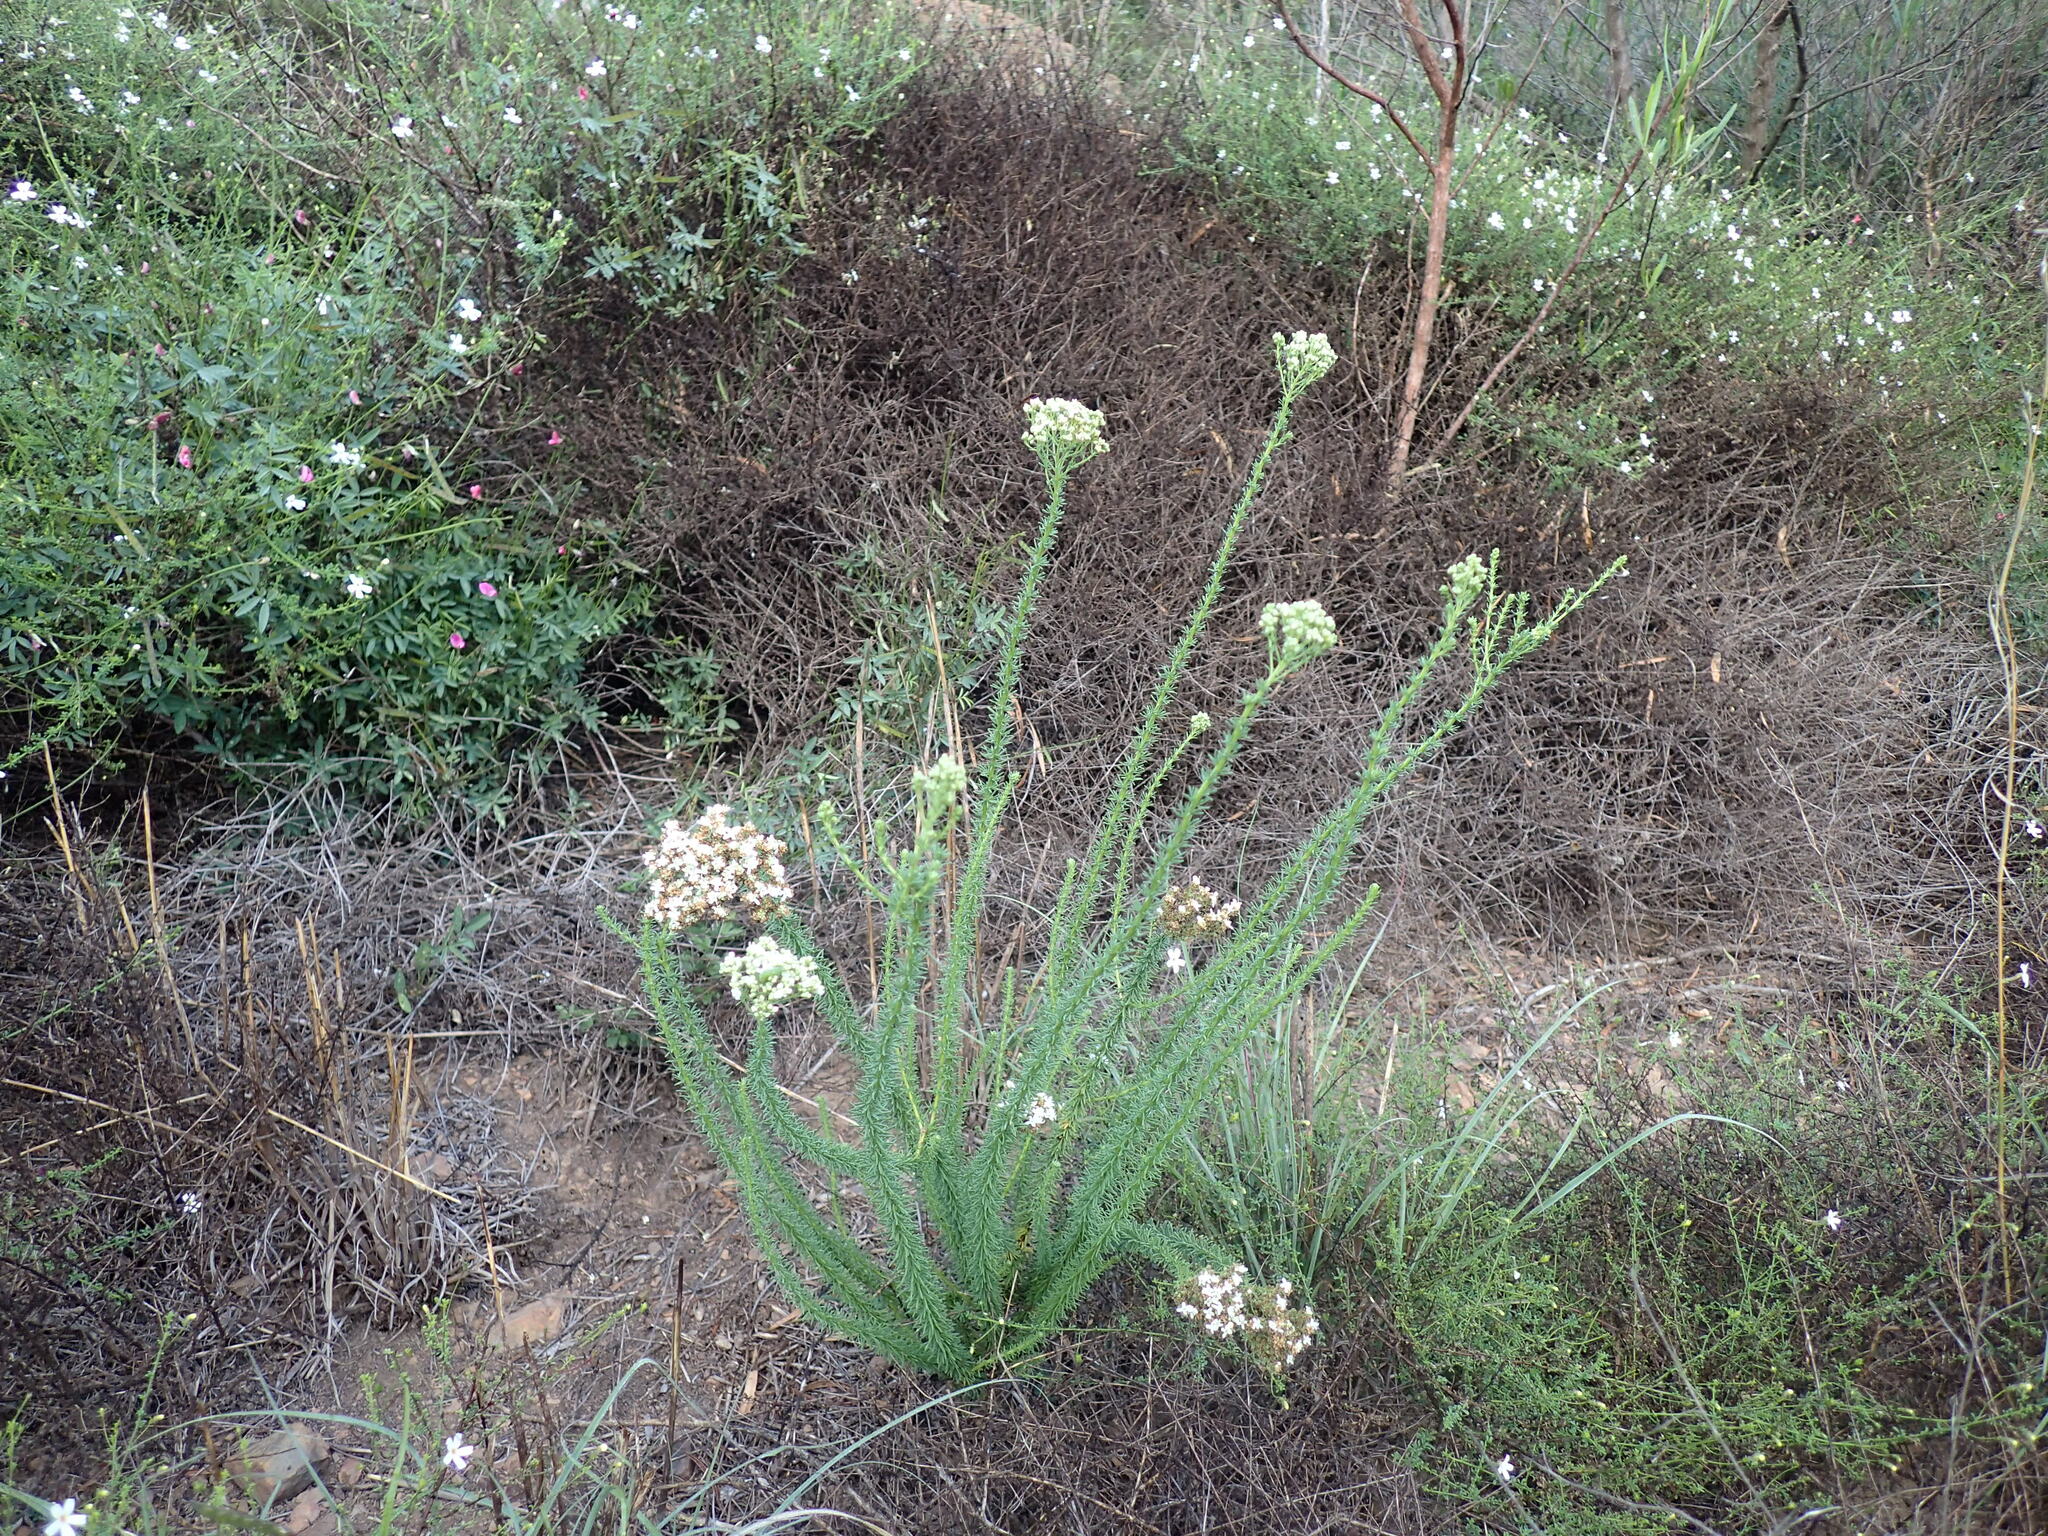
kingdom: Plantae
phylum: Tracheophyta
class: Magnoliopsida
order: Lamiales
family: Scrophulariaceae
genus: Selago
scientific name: Selago dolosa
